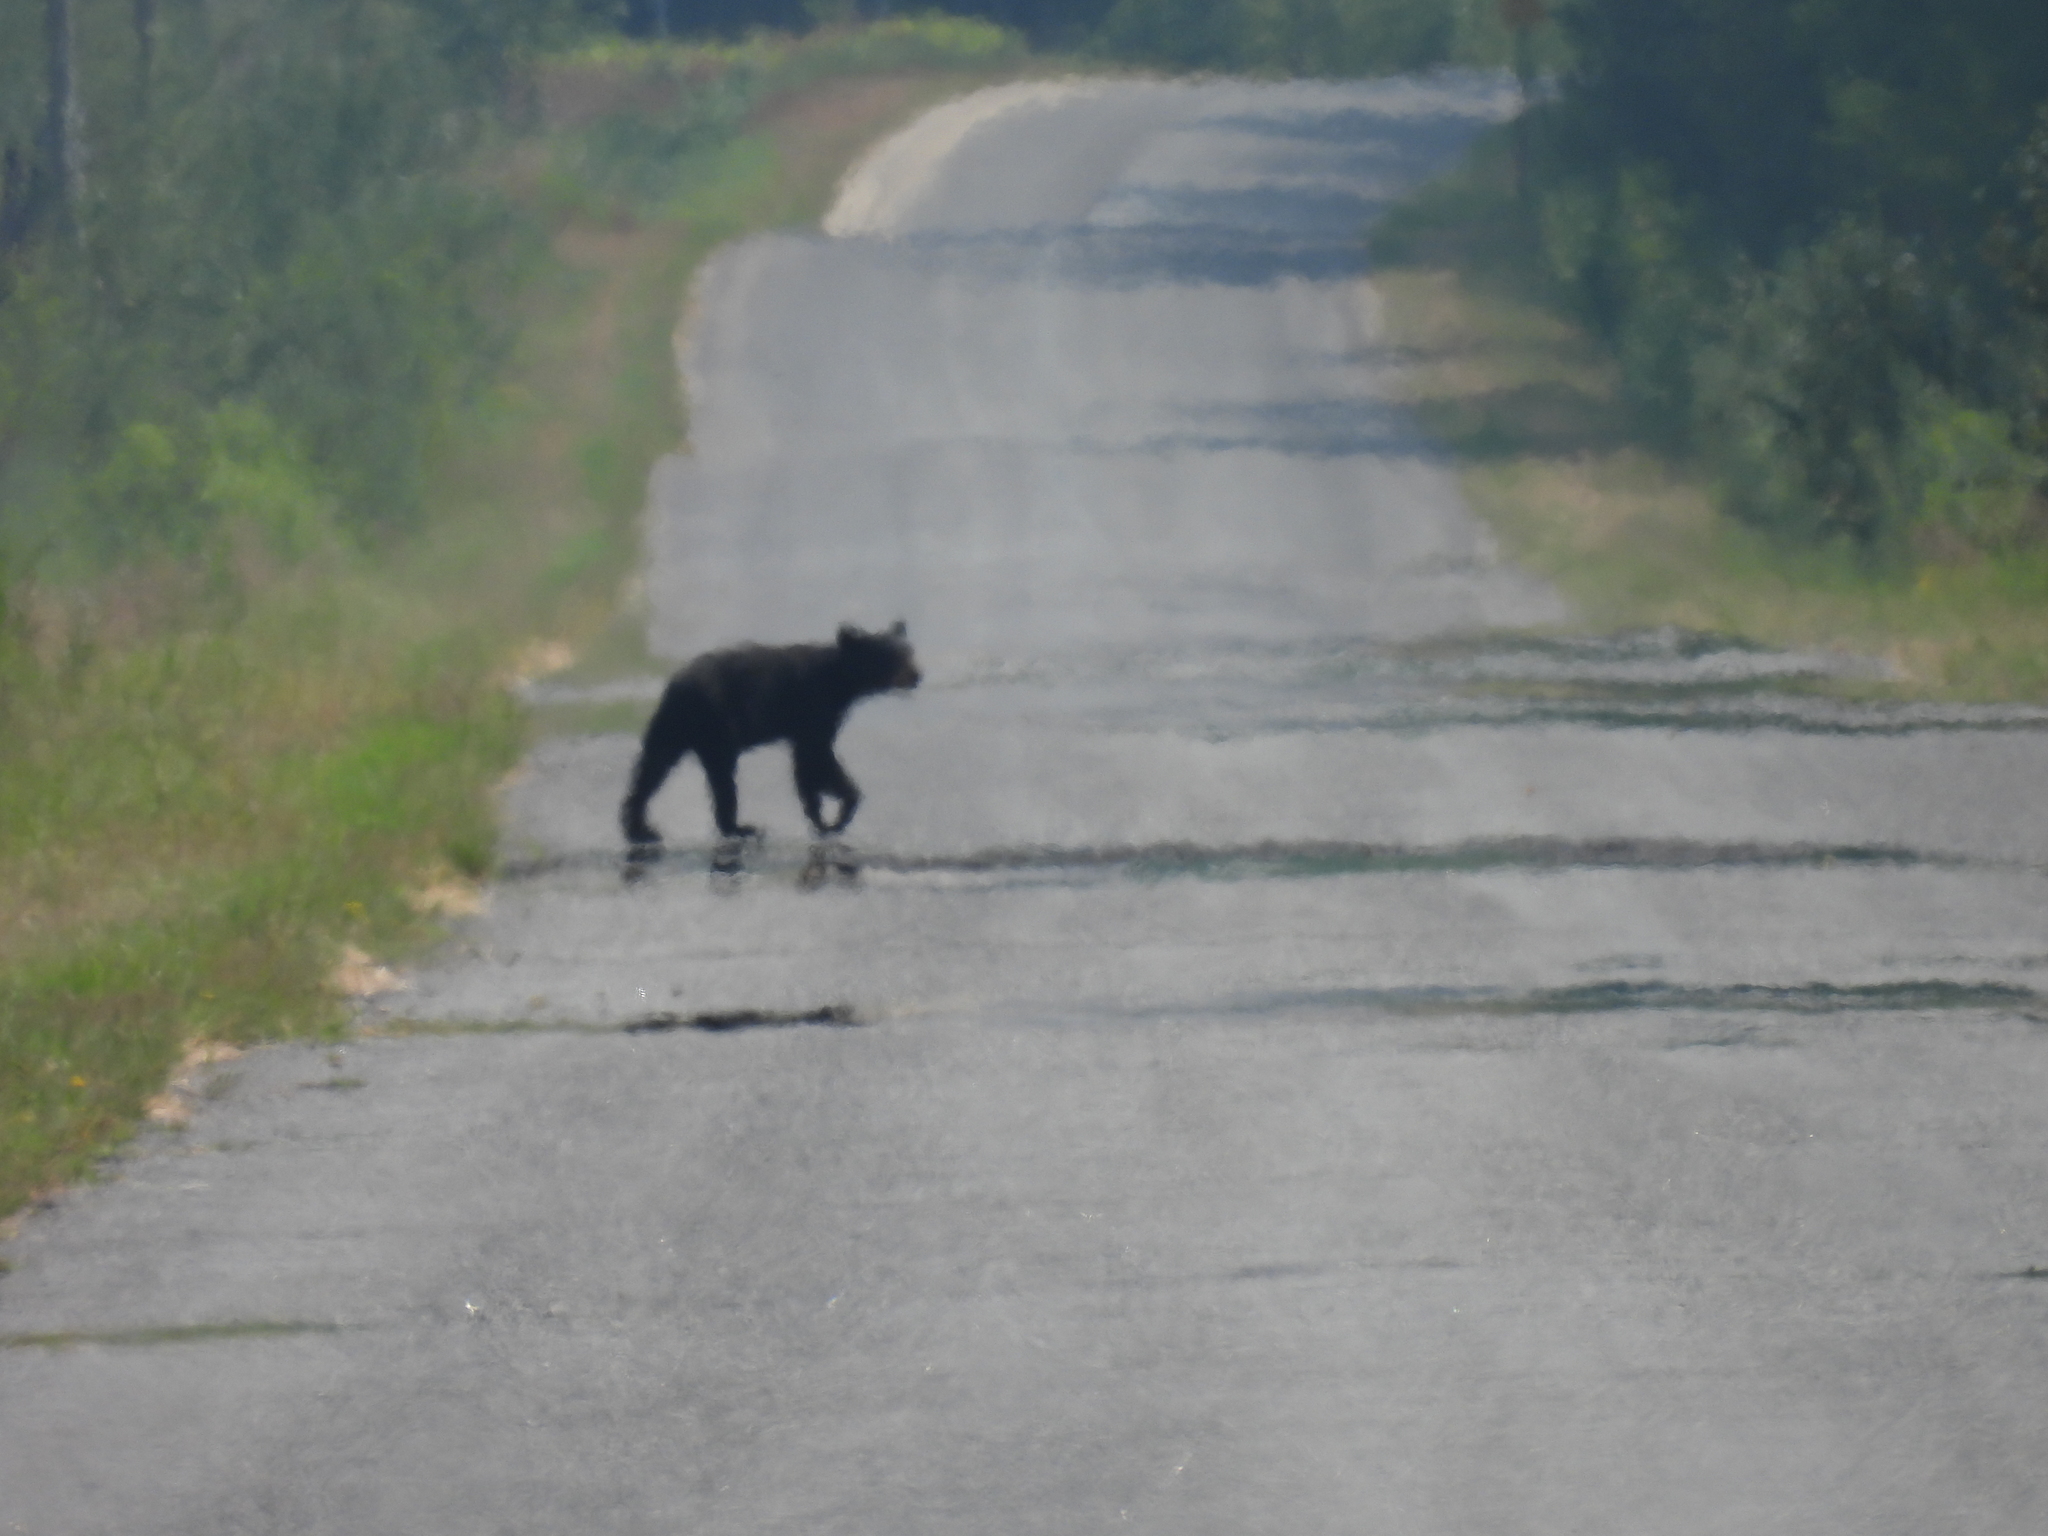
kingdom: Animalia
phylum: Chordata
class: Mammalia
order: Carnivora
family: Ursidae
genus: Ursus
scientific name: Ursus americanus
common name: American black bear
